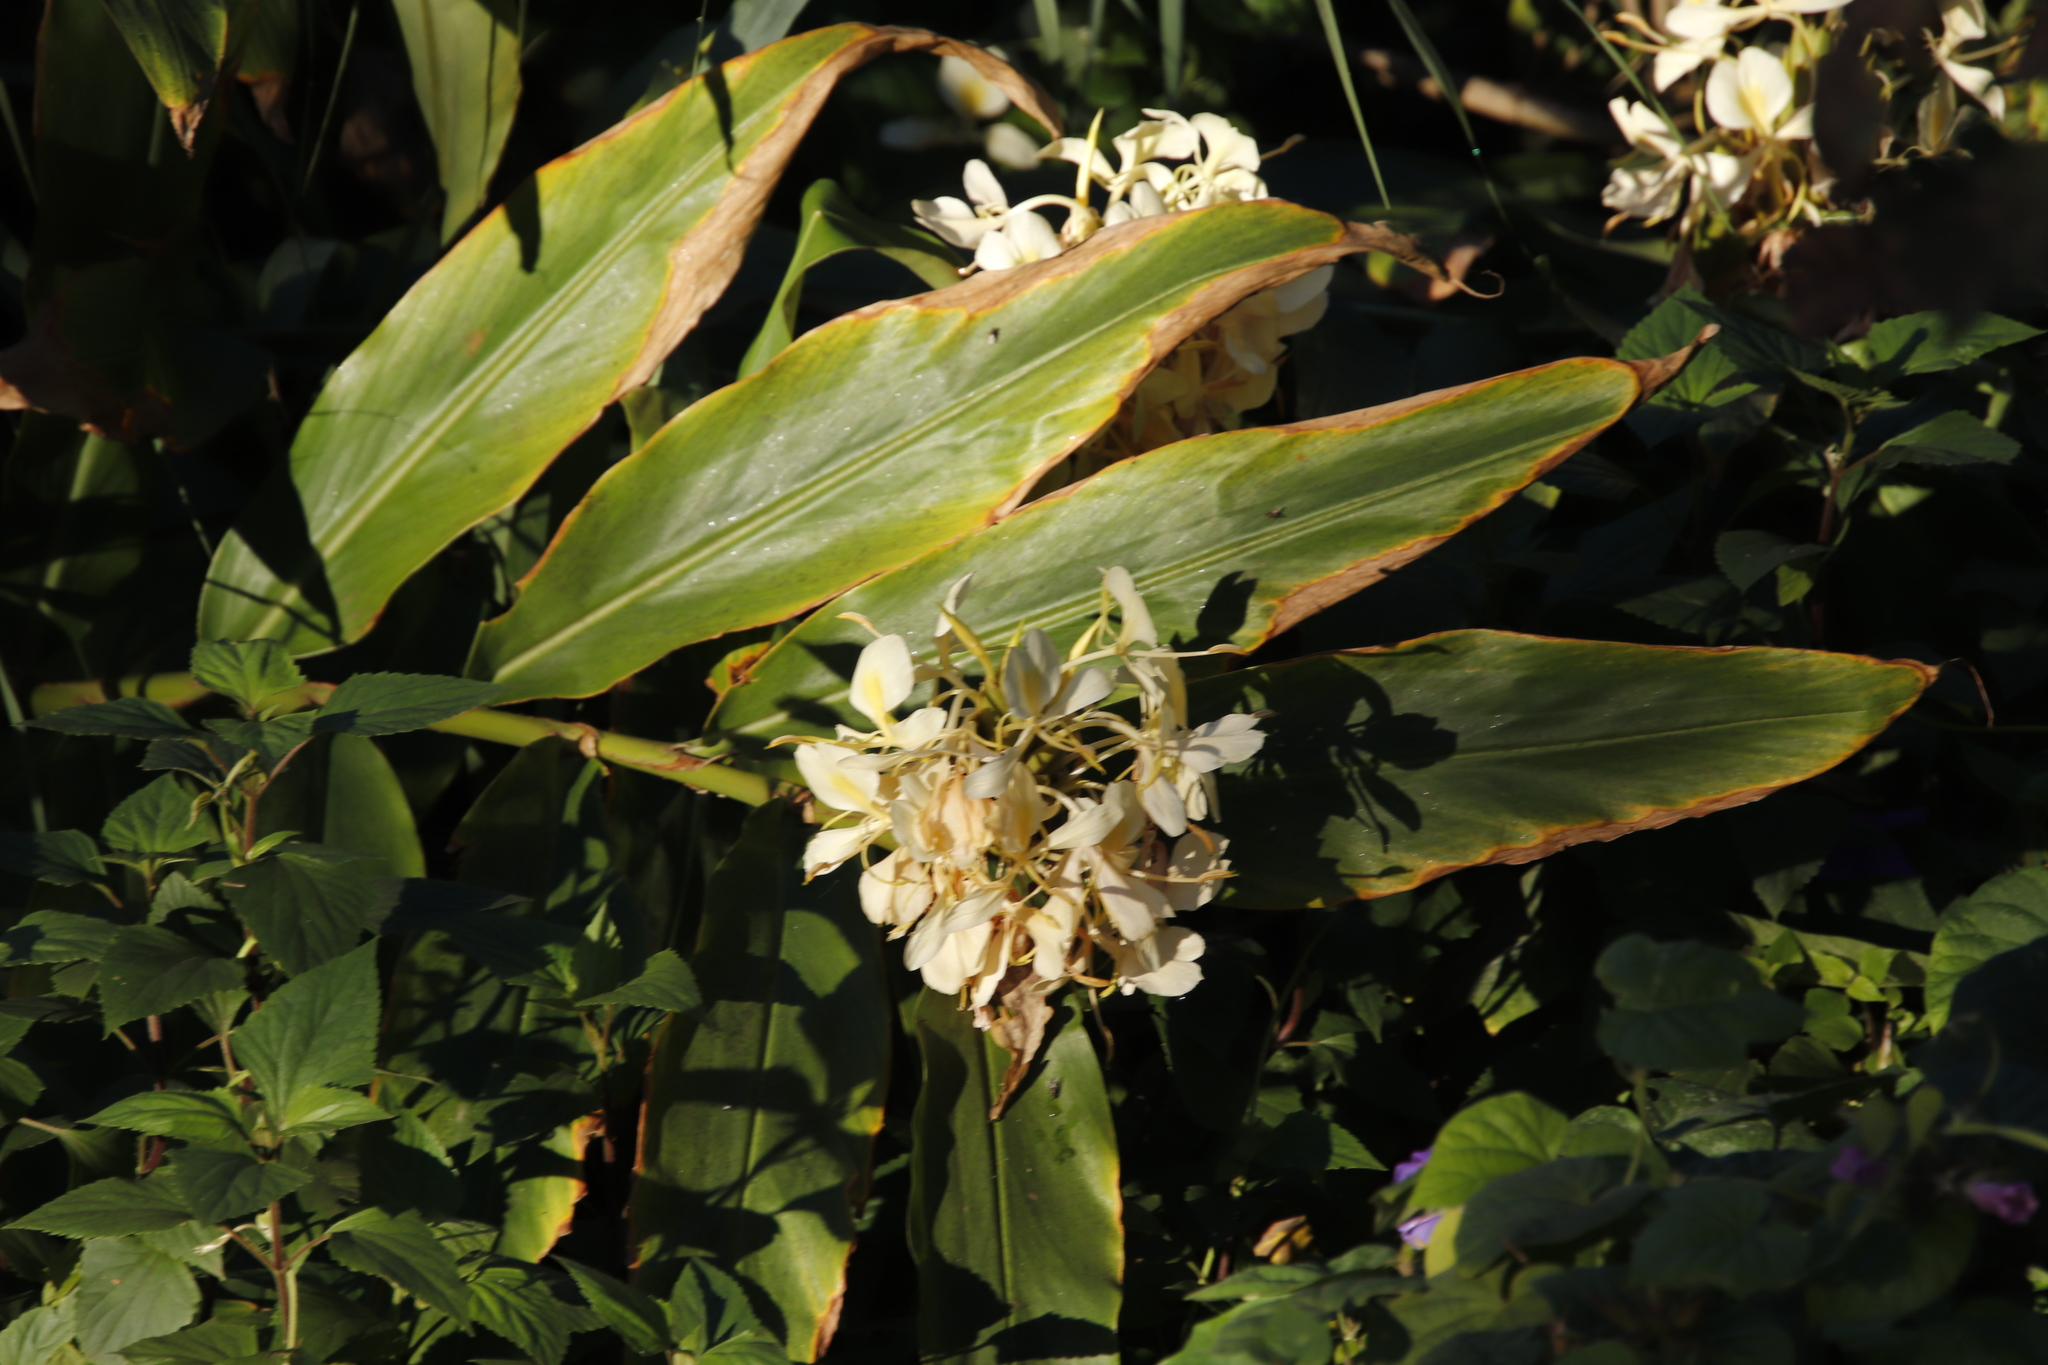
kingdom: Plantae
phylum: Tracheophyta
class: Liliopsida
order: Zingiberales
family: Zingiberaceae
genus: Hedychium
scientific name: Hedychium flavescens
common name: Yellow ginger
